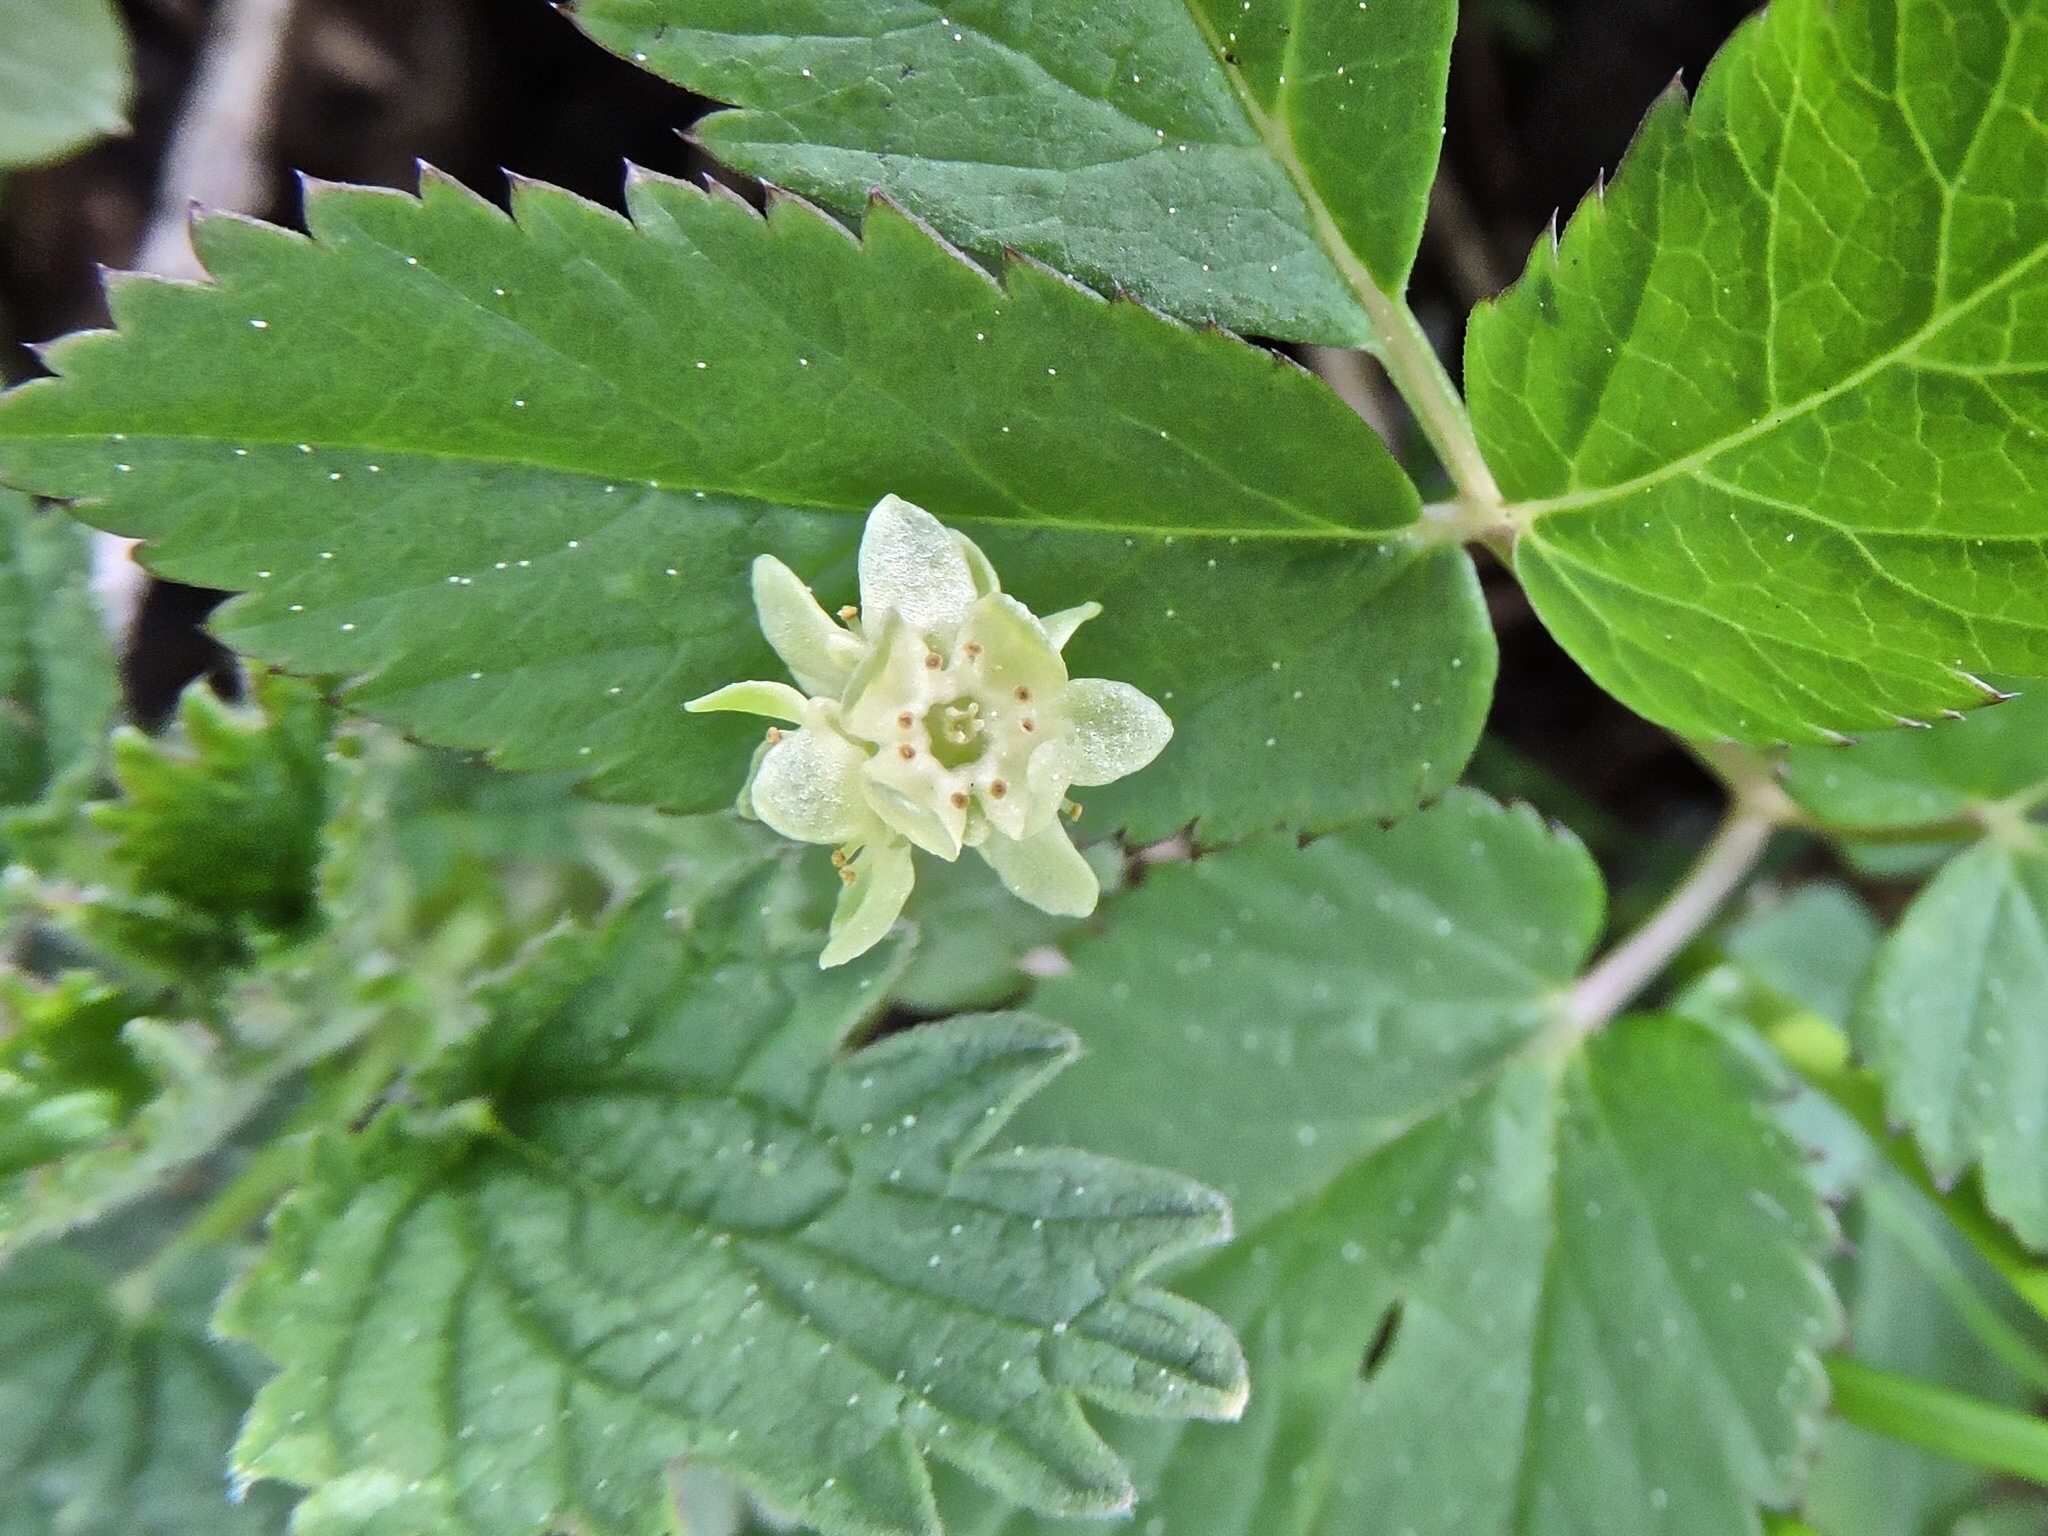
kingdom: Plantae
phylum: Tracheophyta
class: Magnoliopsida
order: Dipsacales
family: Viburnaceae
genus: Adoxa
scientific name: Adoxa moschatellina
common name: Moschatel
